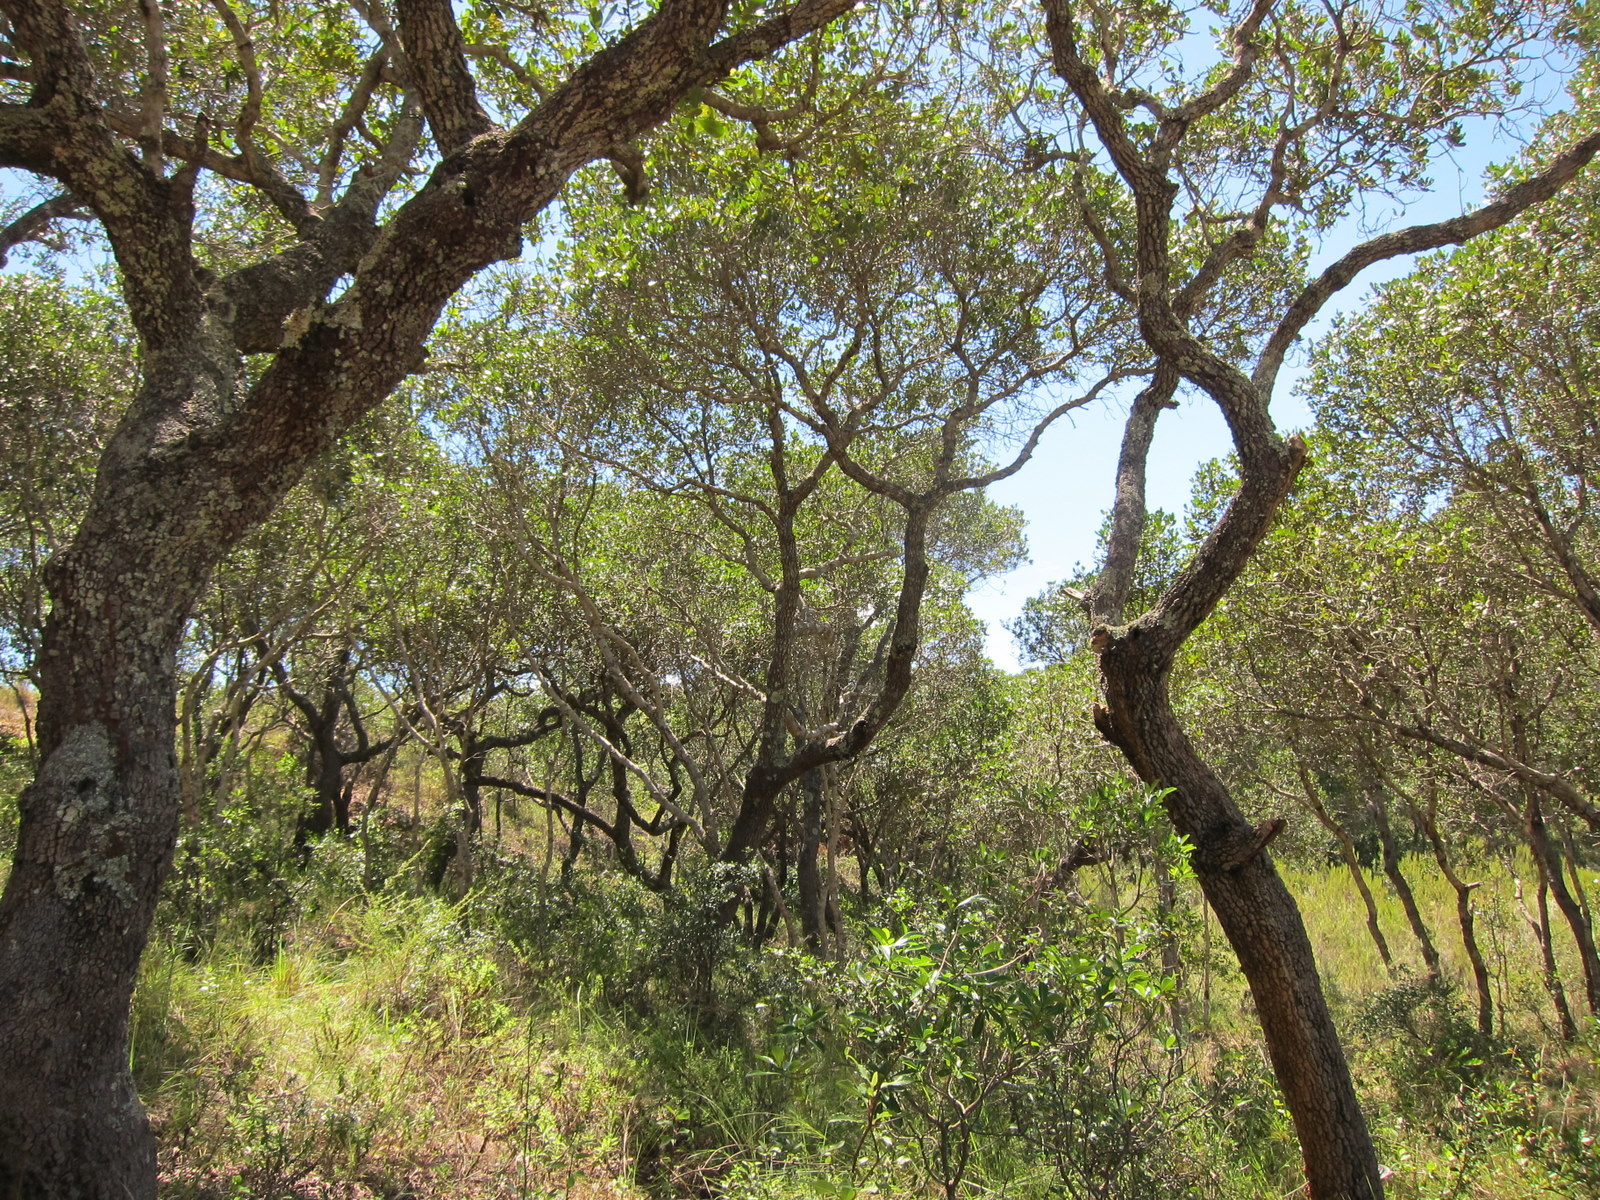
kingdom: Plantae
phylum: Tracheophyta
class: Magnoliopsida
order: Malpighiales
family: Phyllanthaceae
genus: Uapaca
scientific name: Uapaca bojeri
